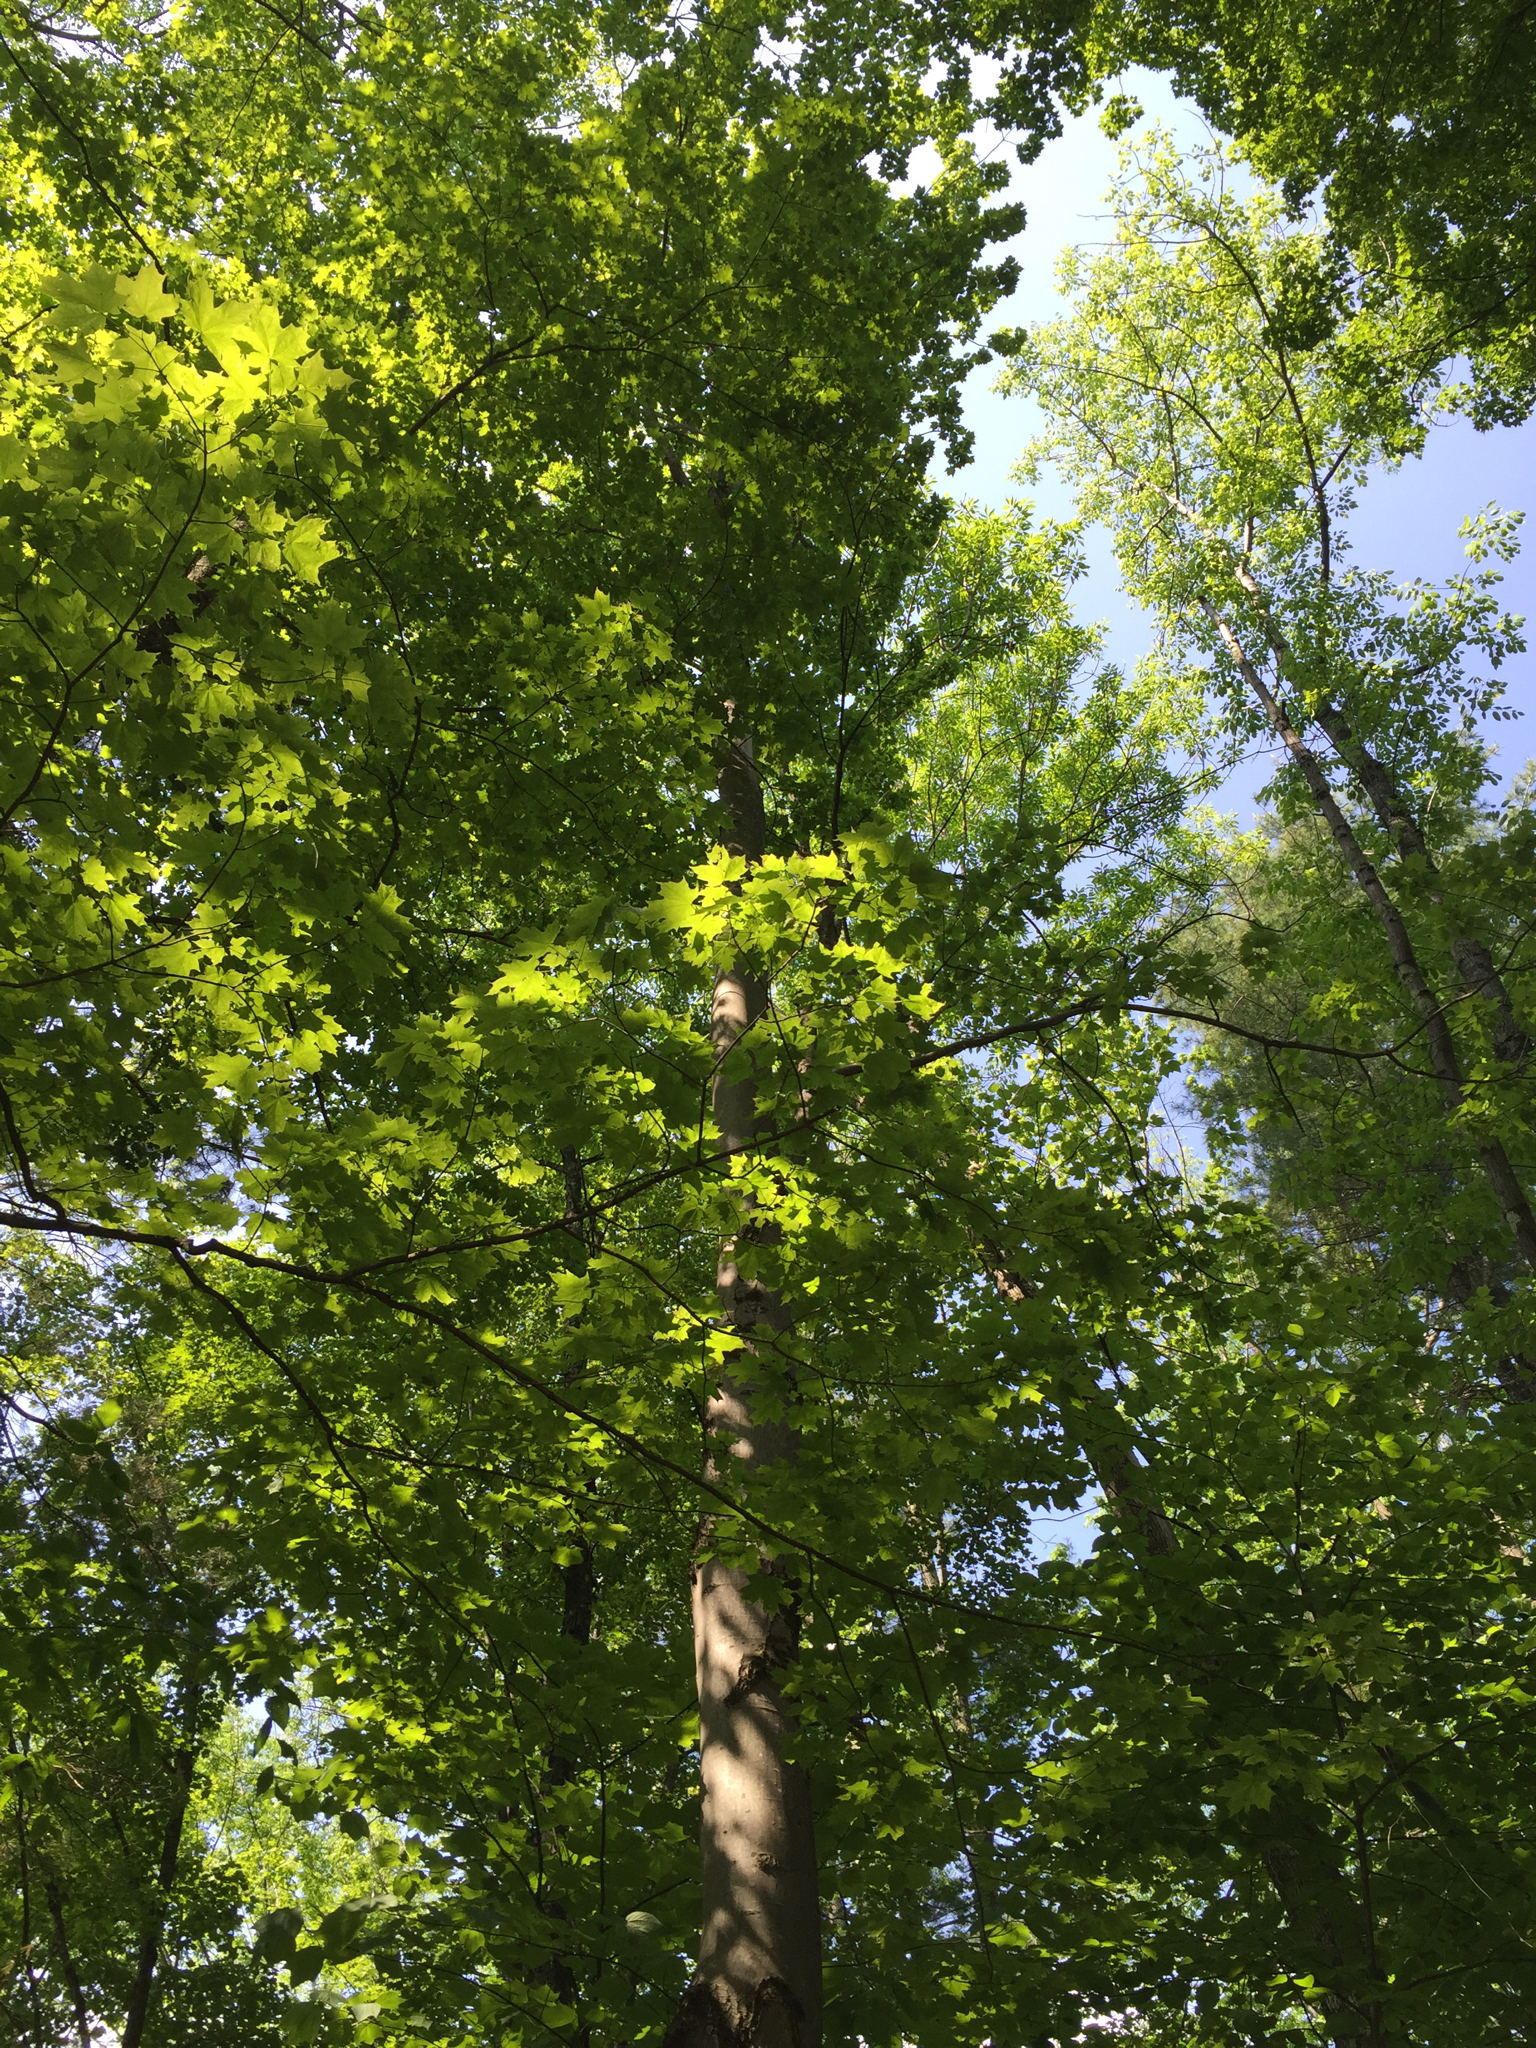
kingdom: Plantae
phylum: Tracheophyta
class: Magnoliopsida
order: Sapindales
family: Sapindaceae
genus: Acer
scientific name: Acer saccharum
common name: Sugar maple
